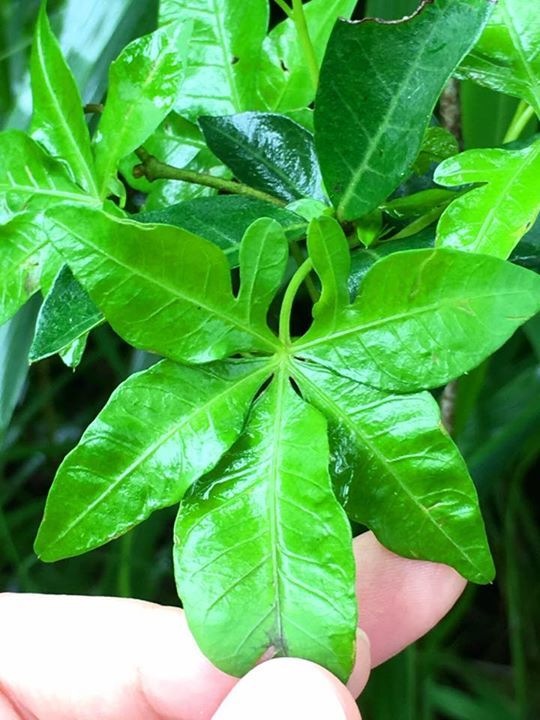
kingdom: Plantae
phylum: Tracheophyta
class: Magnoliopsida
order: Solanales
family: Convolvulaceae
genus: Ipomoea
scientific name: Ipomoea cairica
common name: Mile a minute vine
